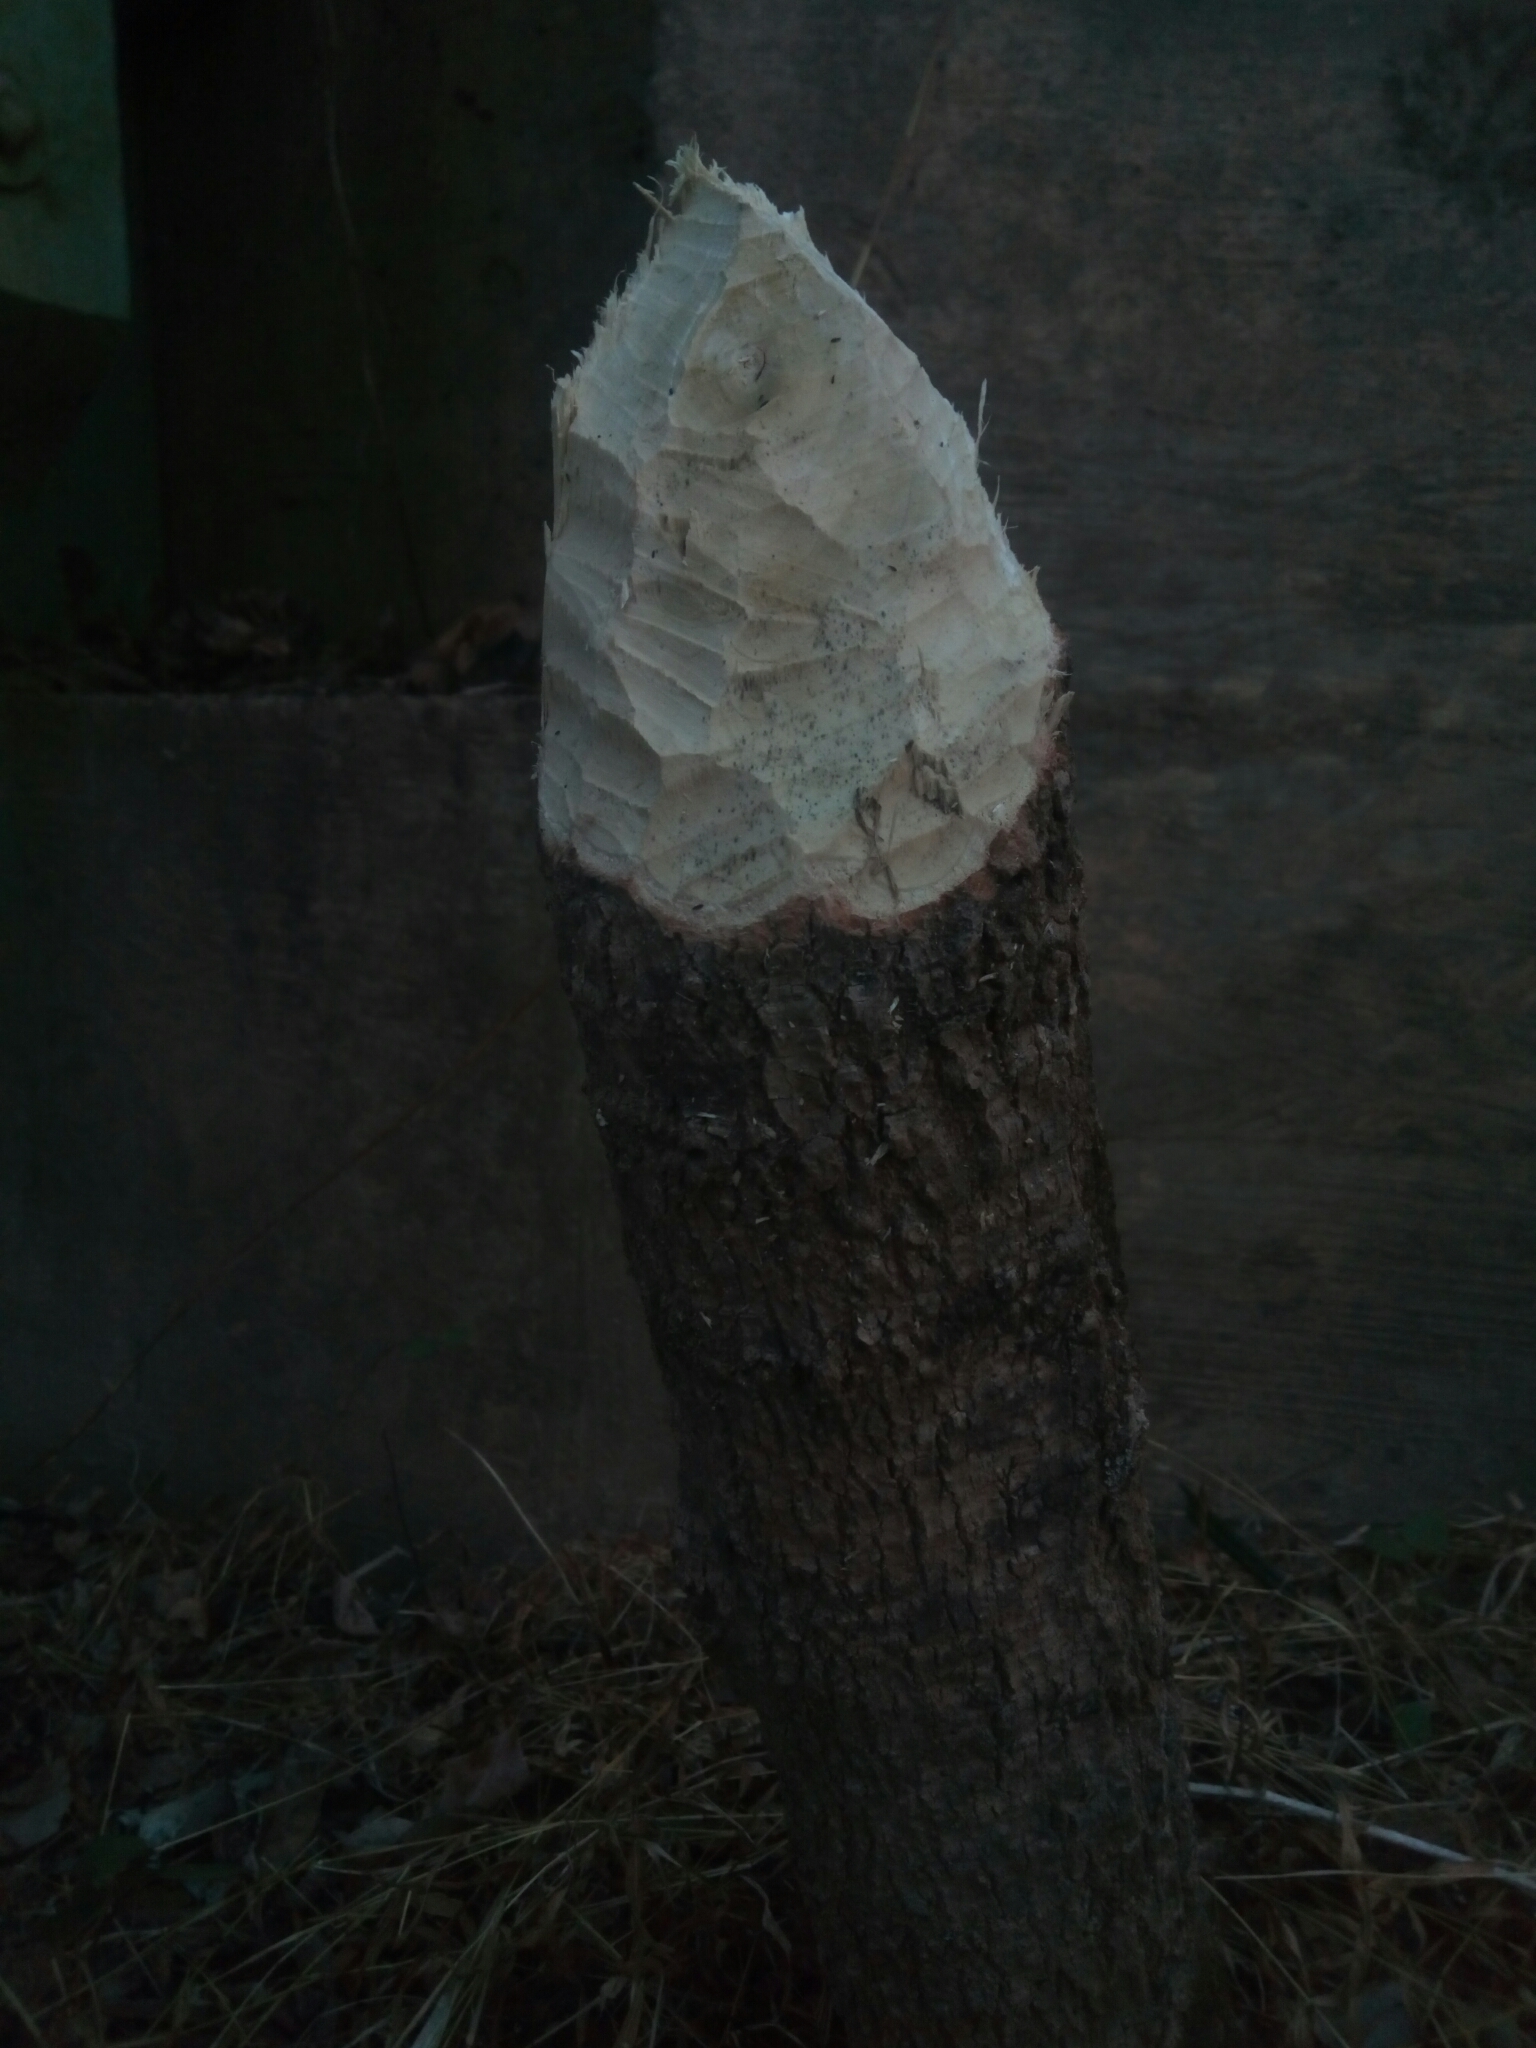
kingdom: Animalia
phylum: Chordata
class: Mammalia
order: Rodentia
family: Castoridae
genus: Castor
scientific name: Castor canadensis
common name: American beaver
